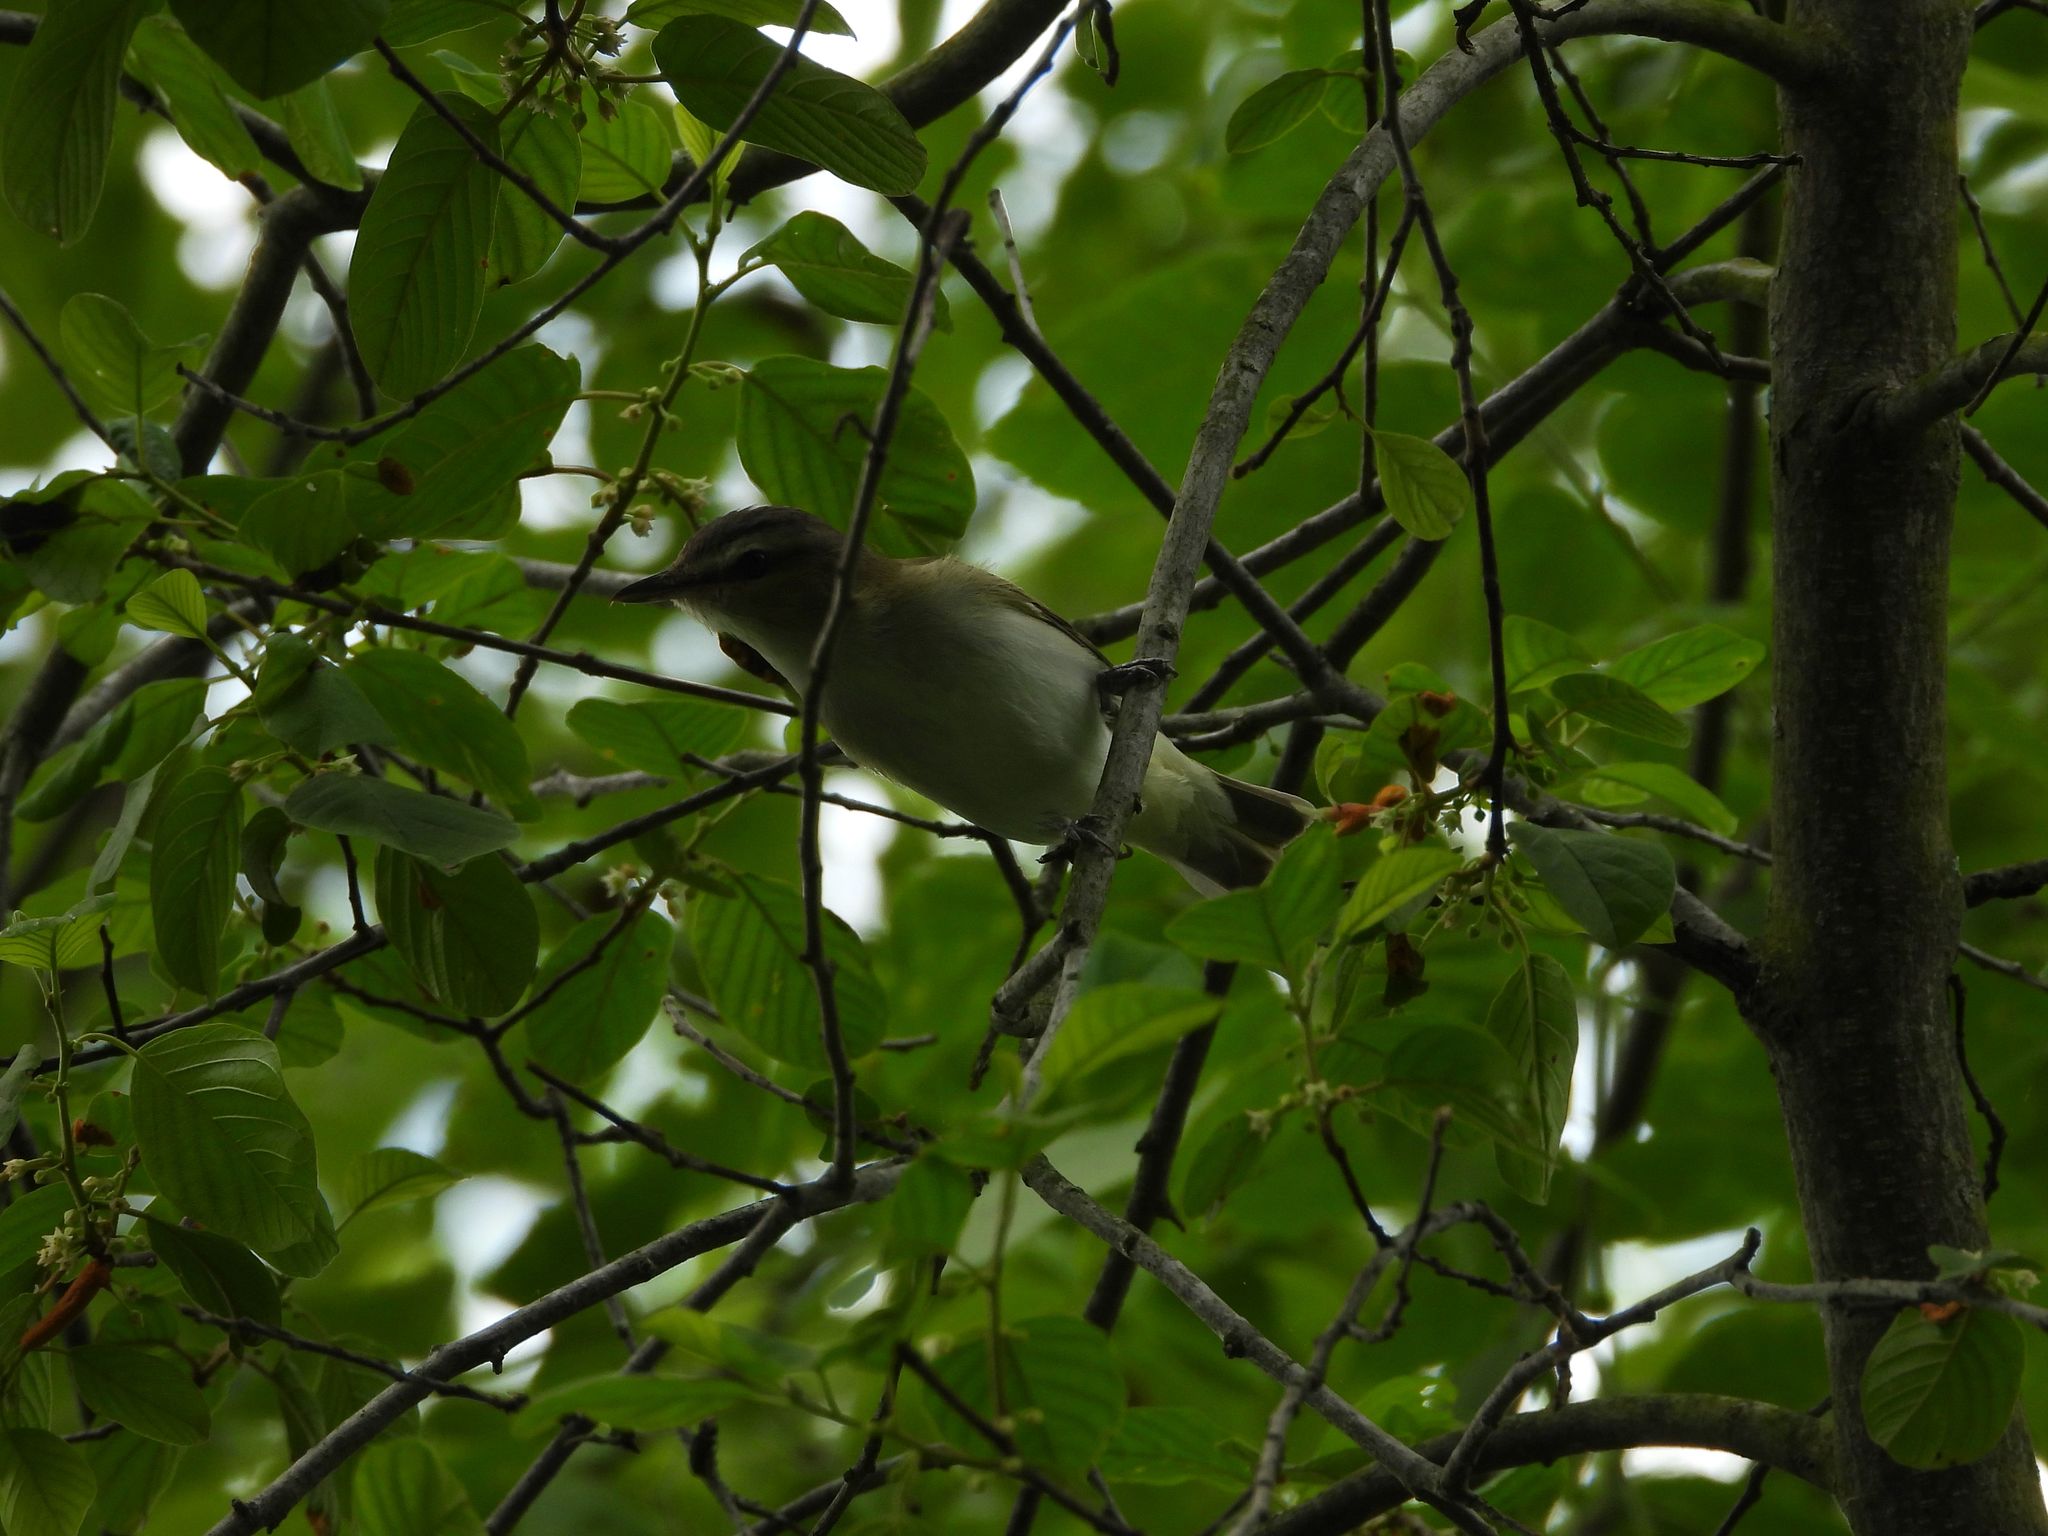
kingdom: Animalia
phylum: Chordata
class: Aves
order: Passeriformes
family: Vireonidae
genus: Vireo
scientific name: Vireo olivaceus
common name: Red-eyed vireo
